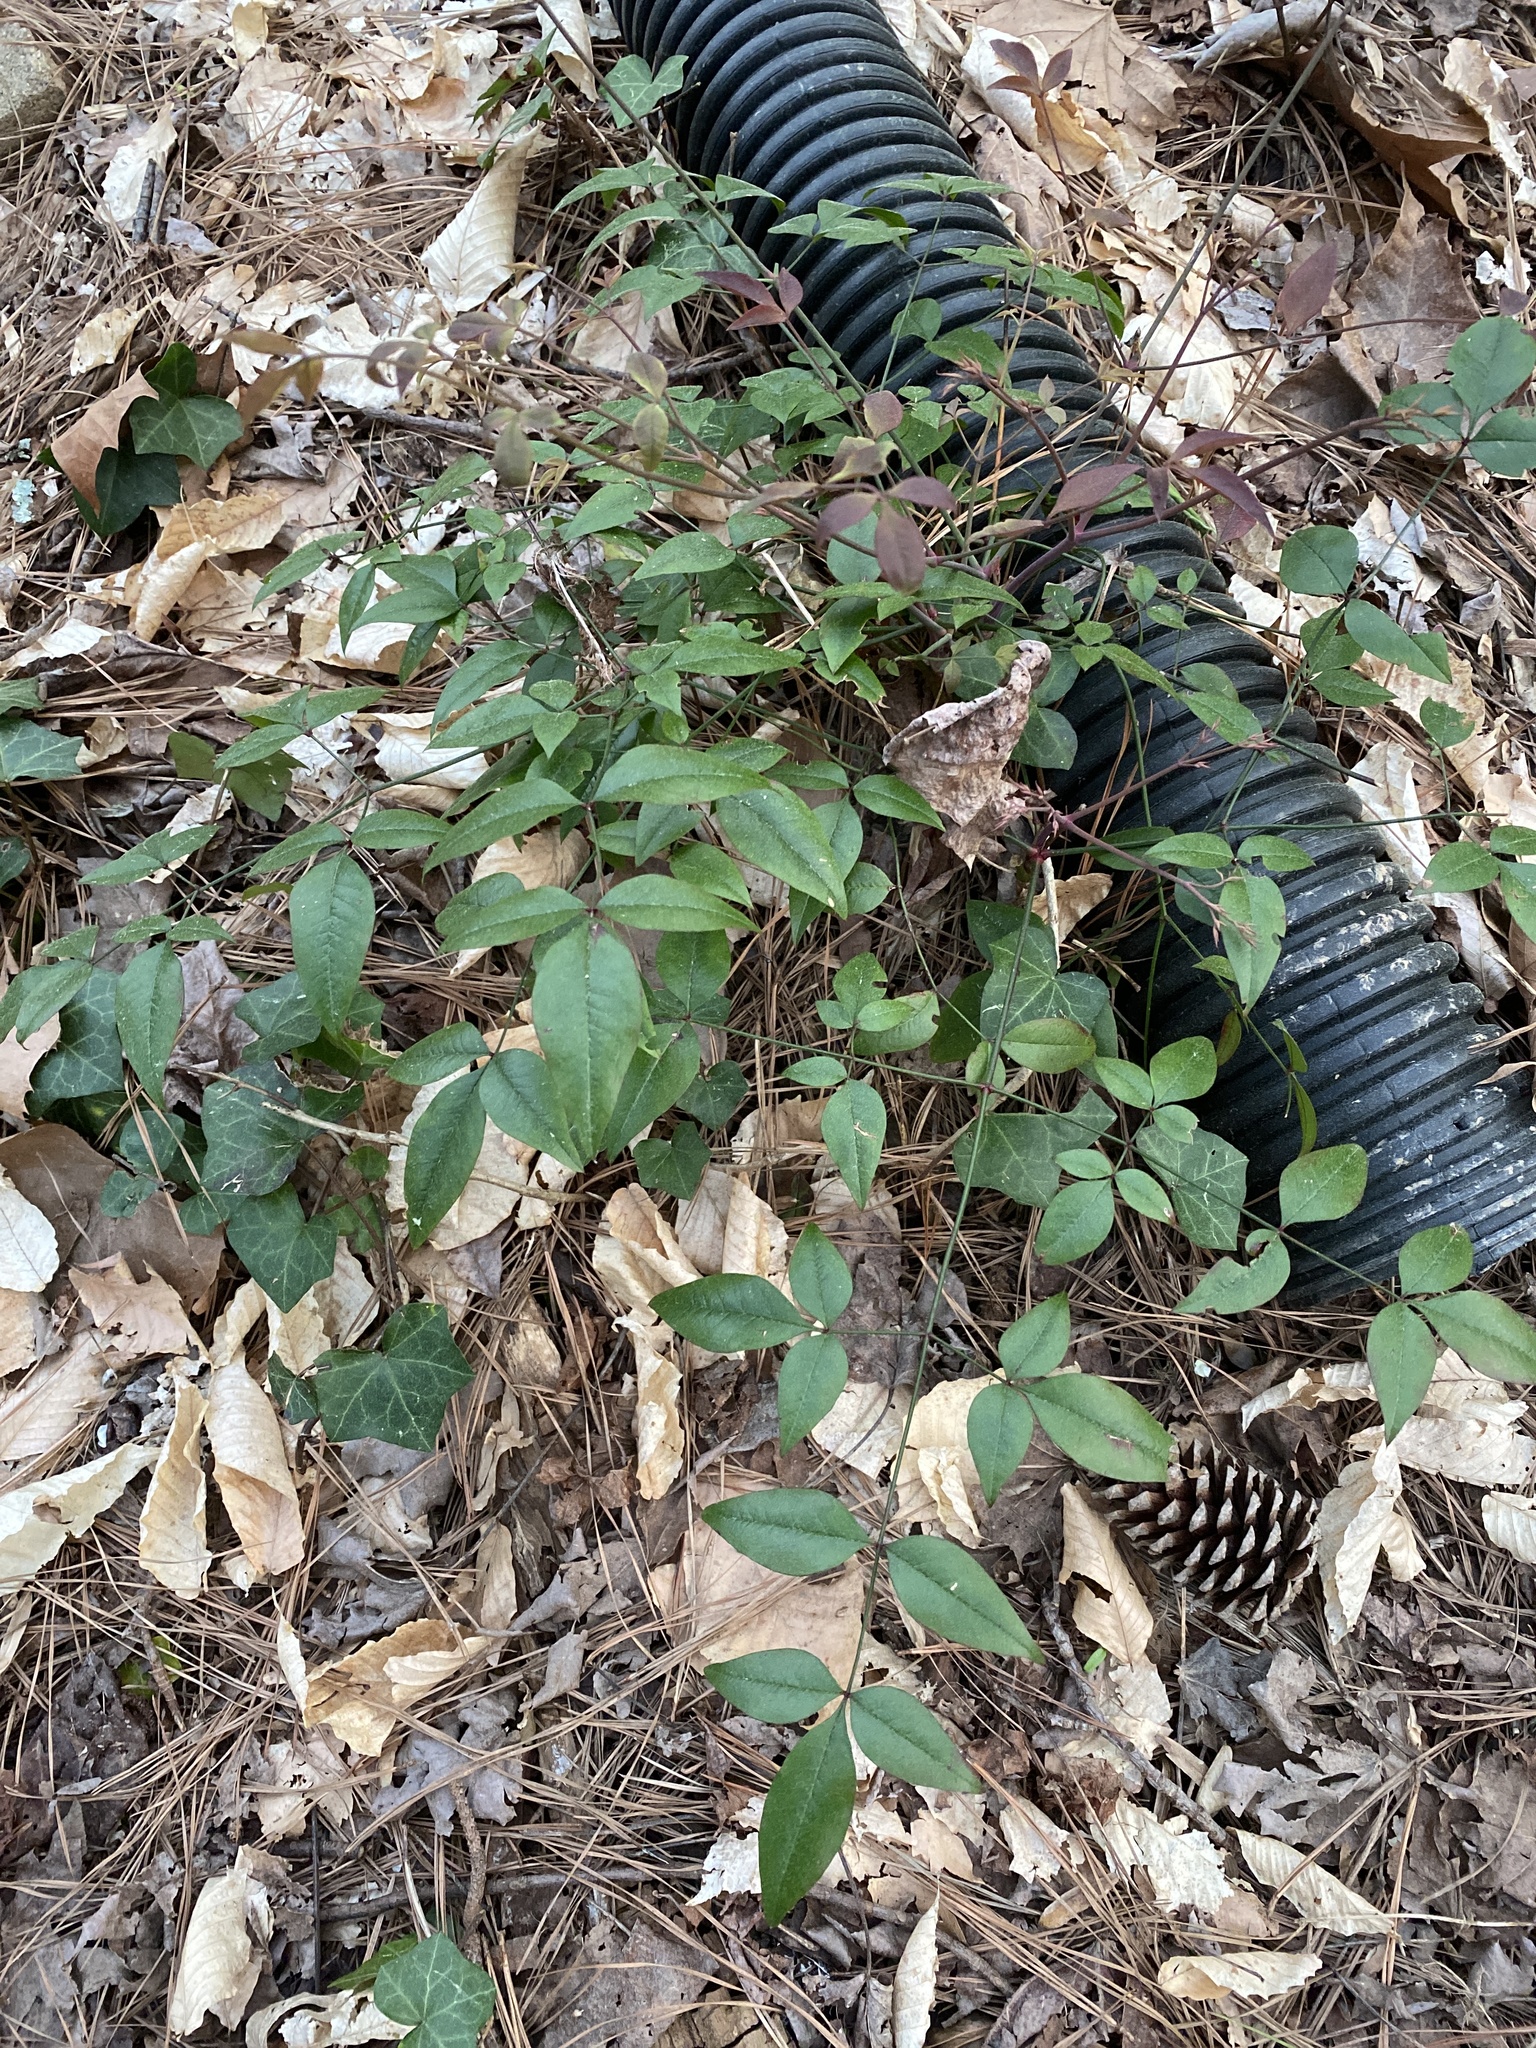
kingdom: Plantae
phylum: Tracheophyta
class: Magnoliopsida
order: Ranunculales
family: Berberidaceae
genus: Nandina
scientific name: Nandina domestica
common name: Sacred bamboo
